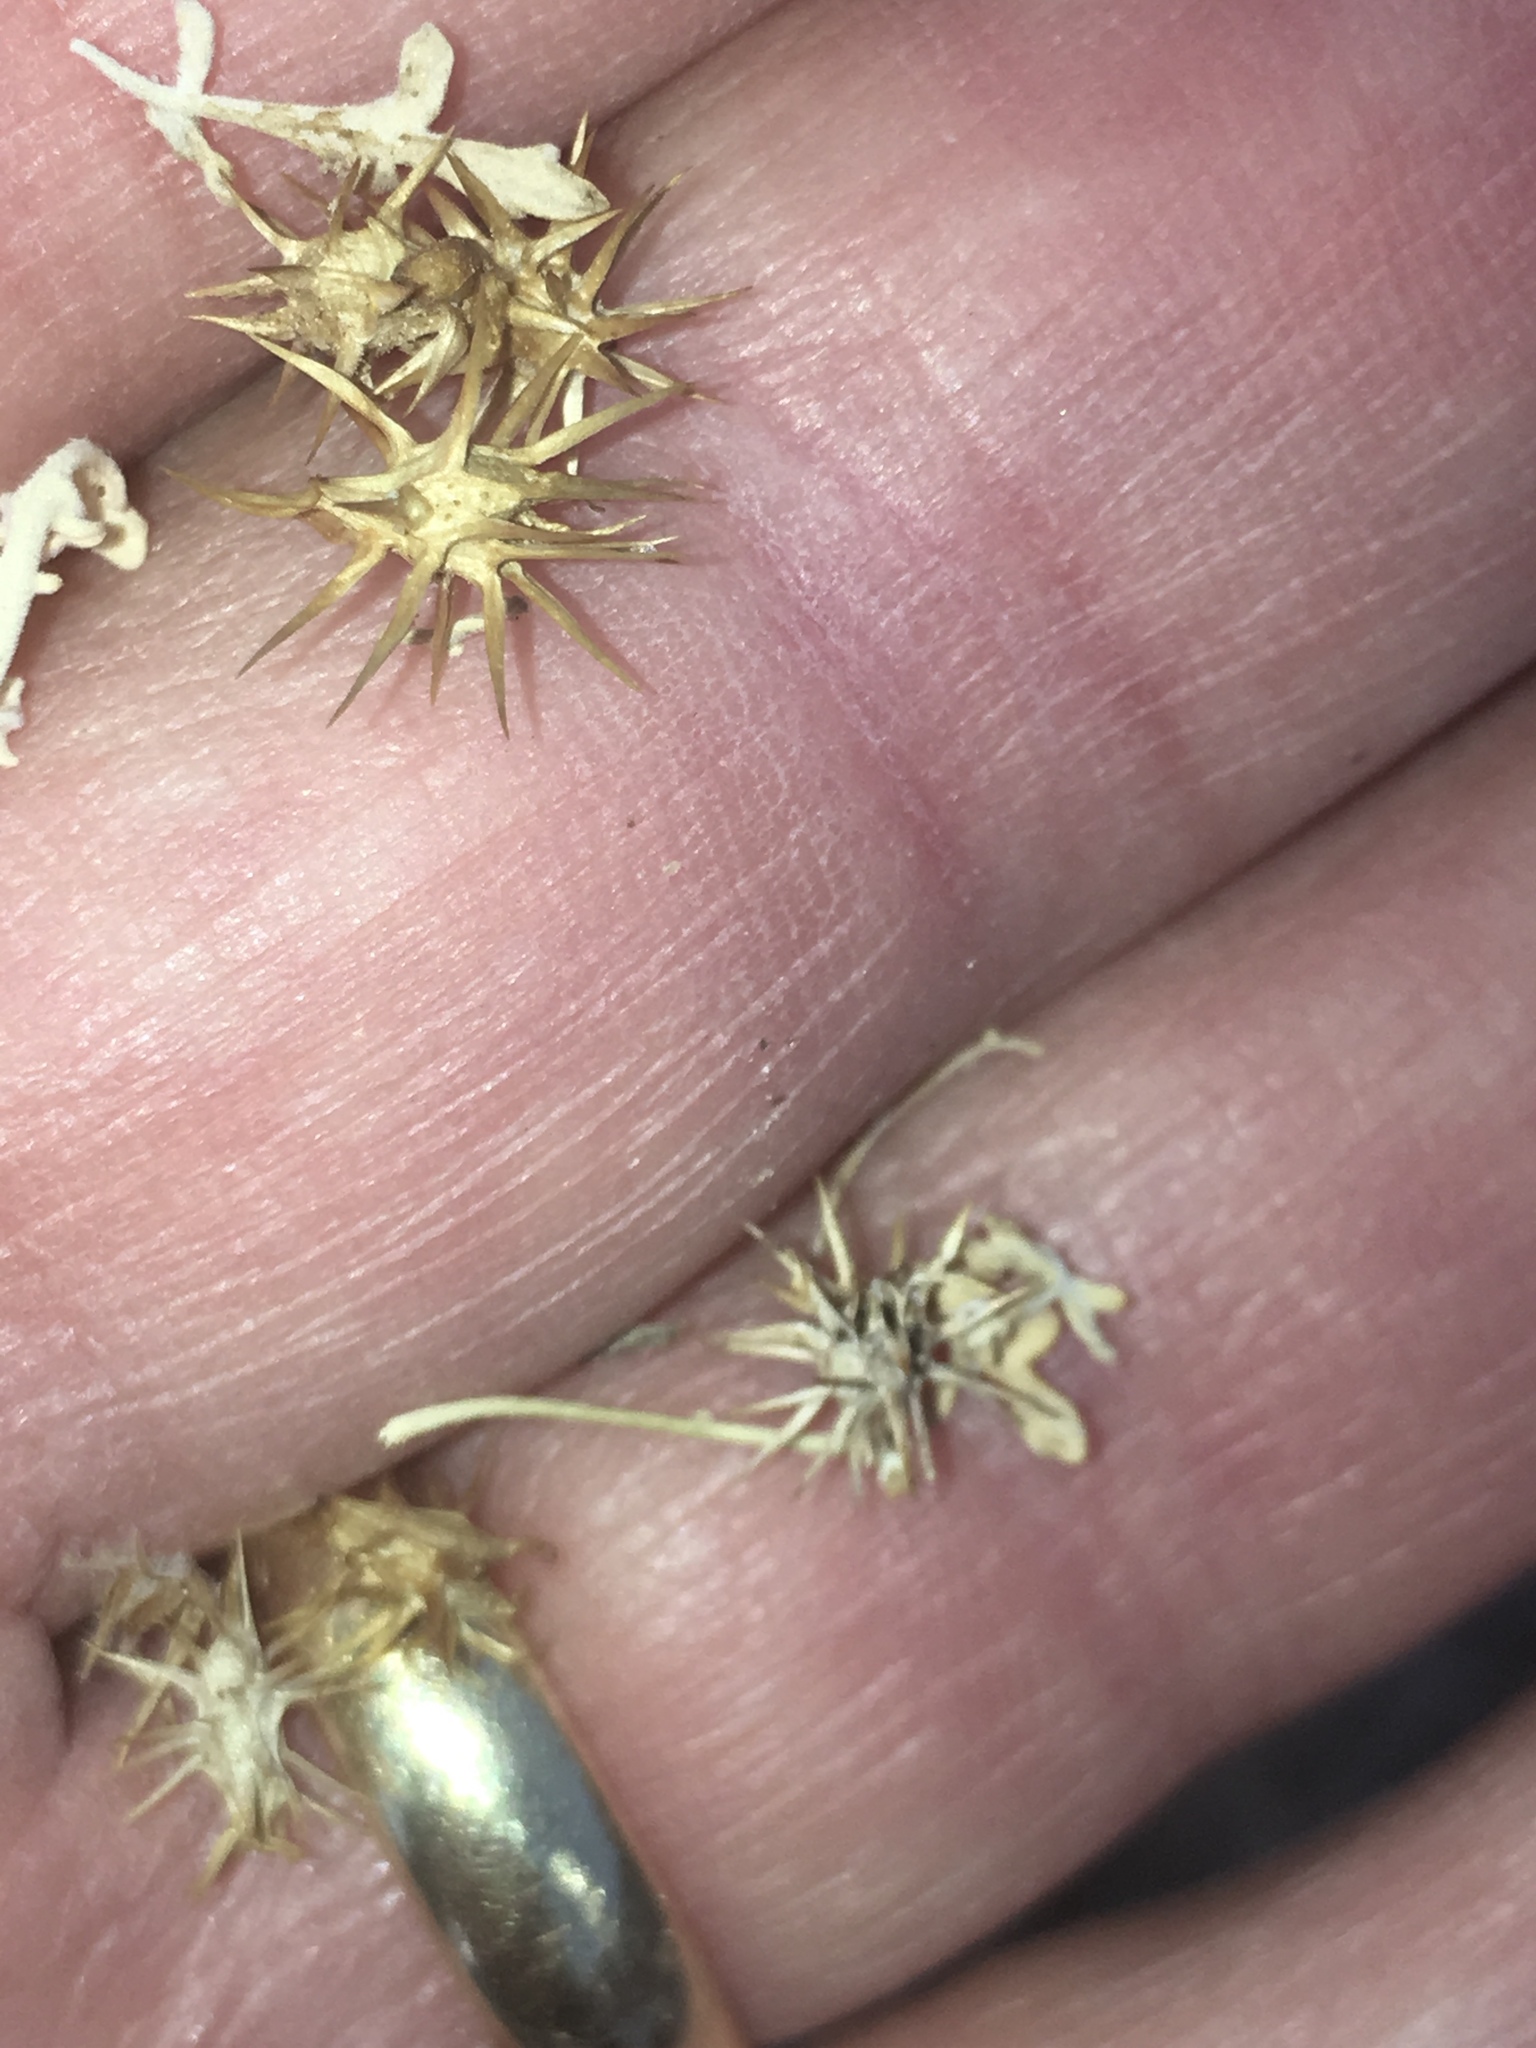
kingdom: Plantae
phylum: Tracheophyta
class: Magnoliopsida
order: Asterales
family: Asteraceae
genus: Ambrosia
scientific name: Ambrosia dumosa
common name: Bur-sage
